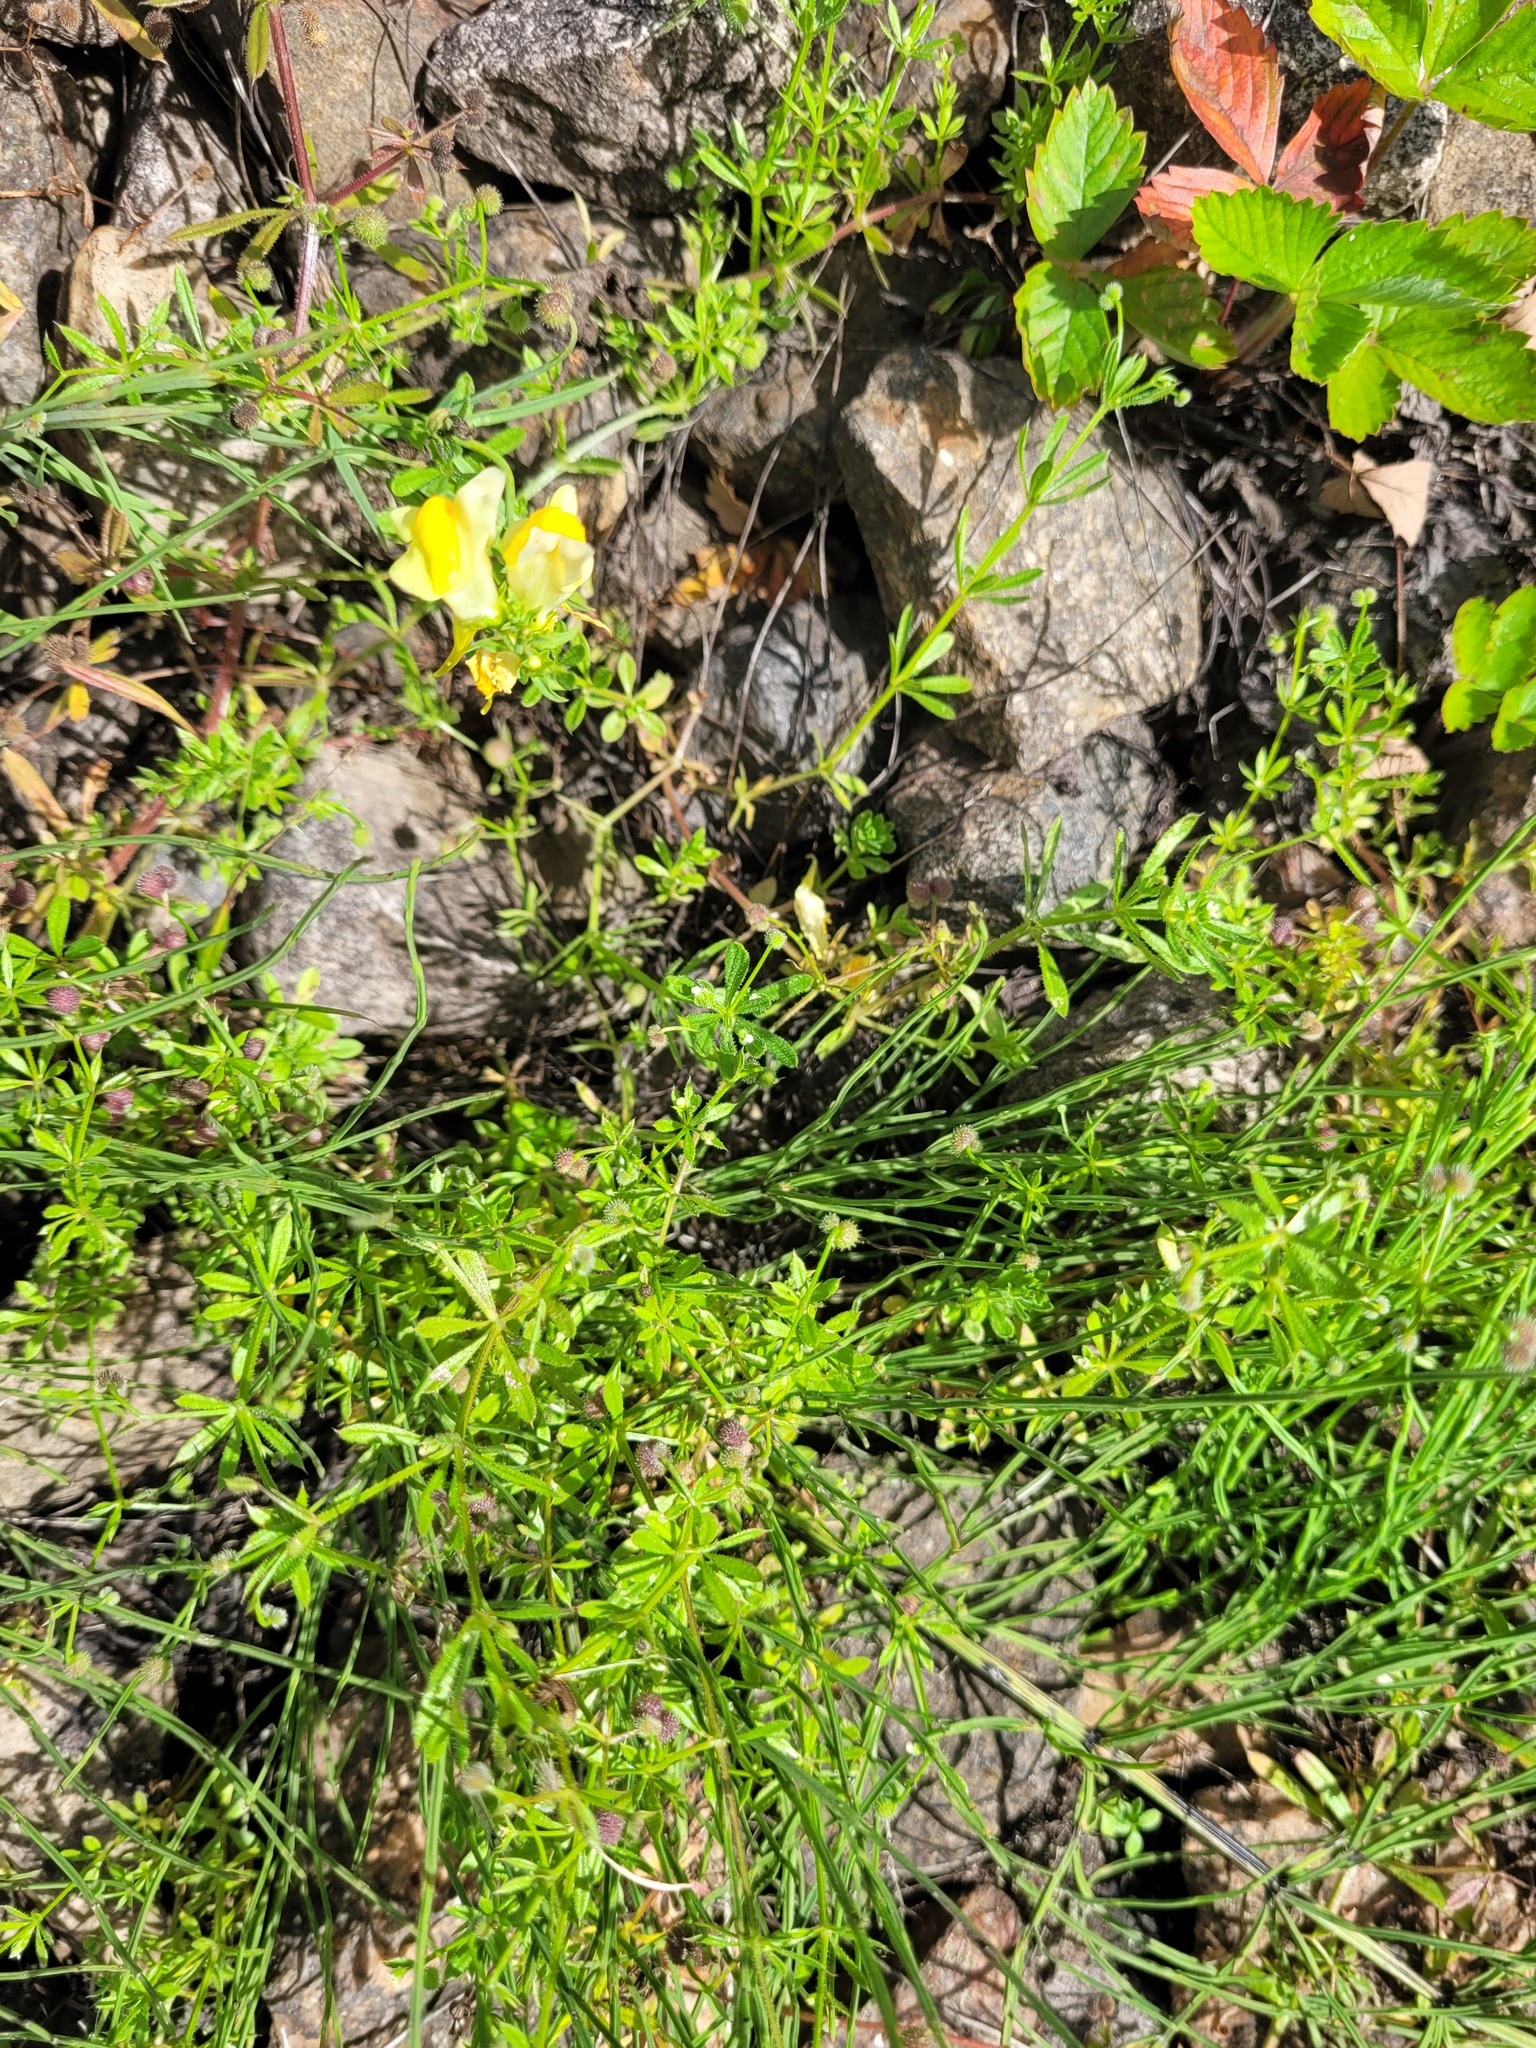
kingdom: Plantae
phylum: Tracheophyta
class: Magnoliopsida
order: Gentianales
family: Rubiaceae
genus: Galium
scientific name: Galium aparine
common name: Cleavers
